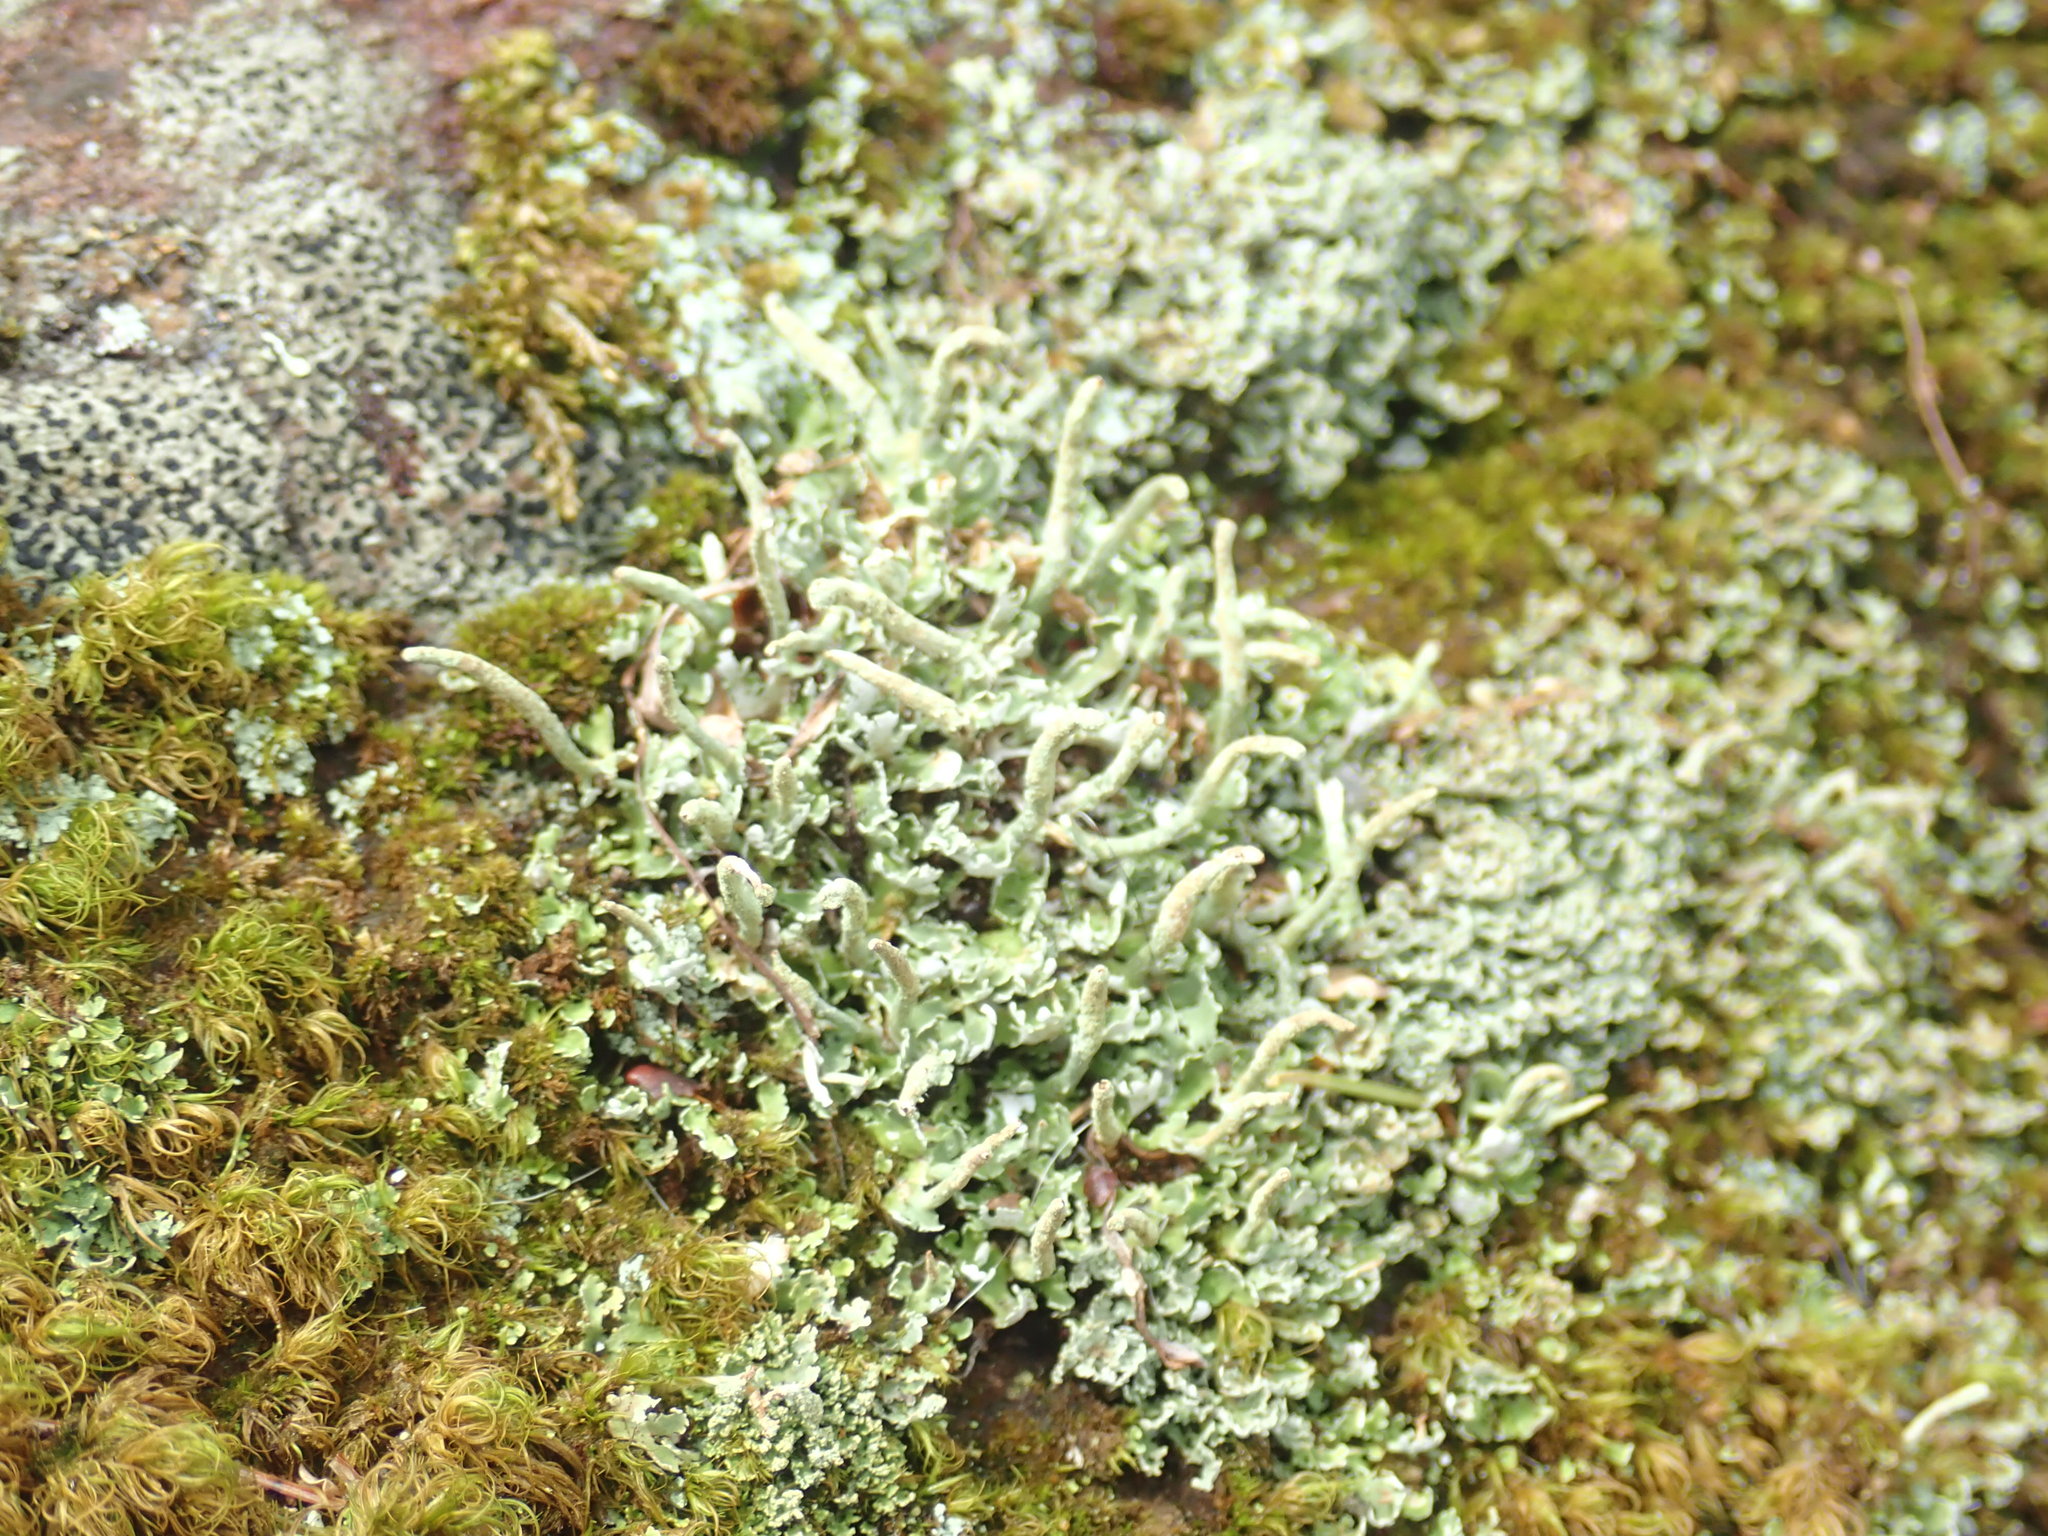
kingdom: Fungi
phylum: Ascomycota
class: Lecanoromycetes
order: Lecanorales
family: Cladoniaceae
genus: Cladonia
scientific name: Cladonia coniocraea
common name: Common powderhorn
